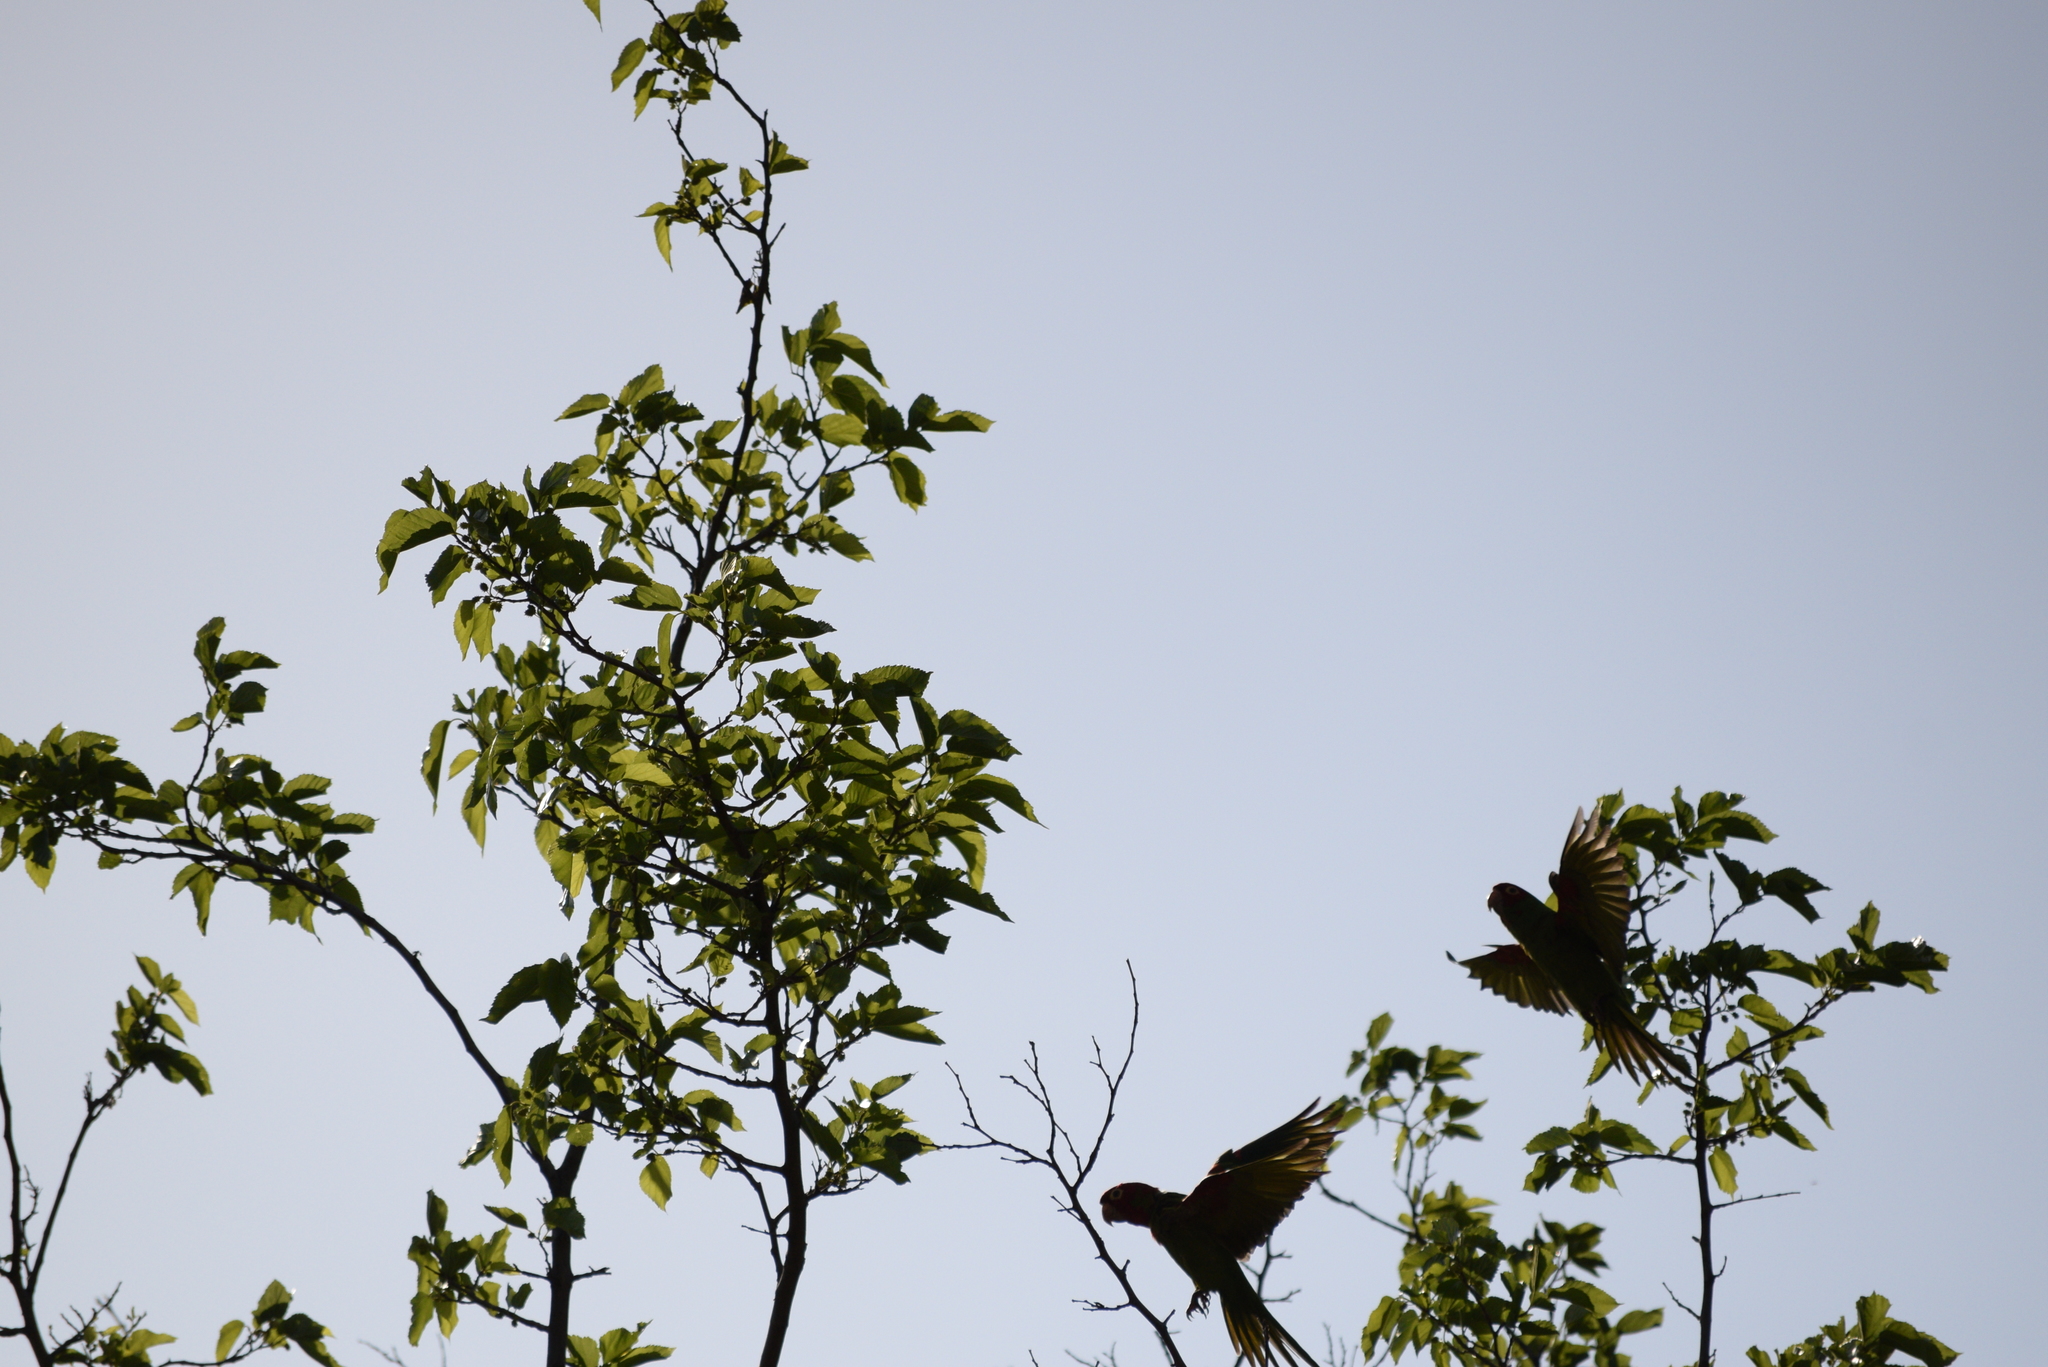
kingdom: Animalia
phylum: Chordata
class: Aves
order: Psittaciformes
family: Psittacidae
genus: Psittacara
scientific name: Psittacara
